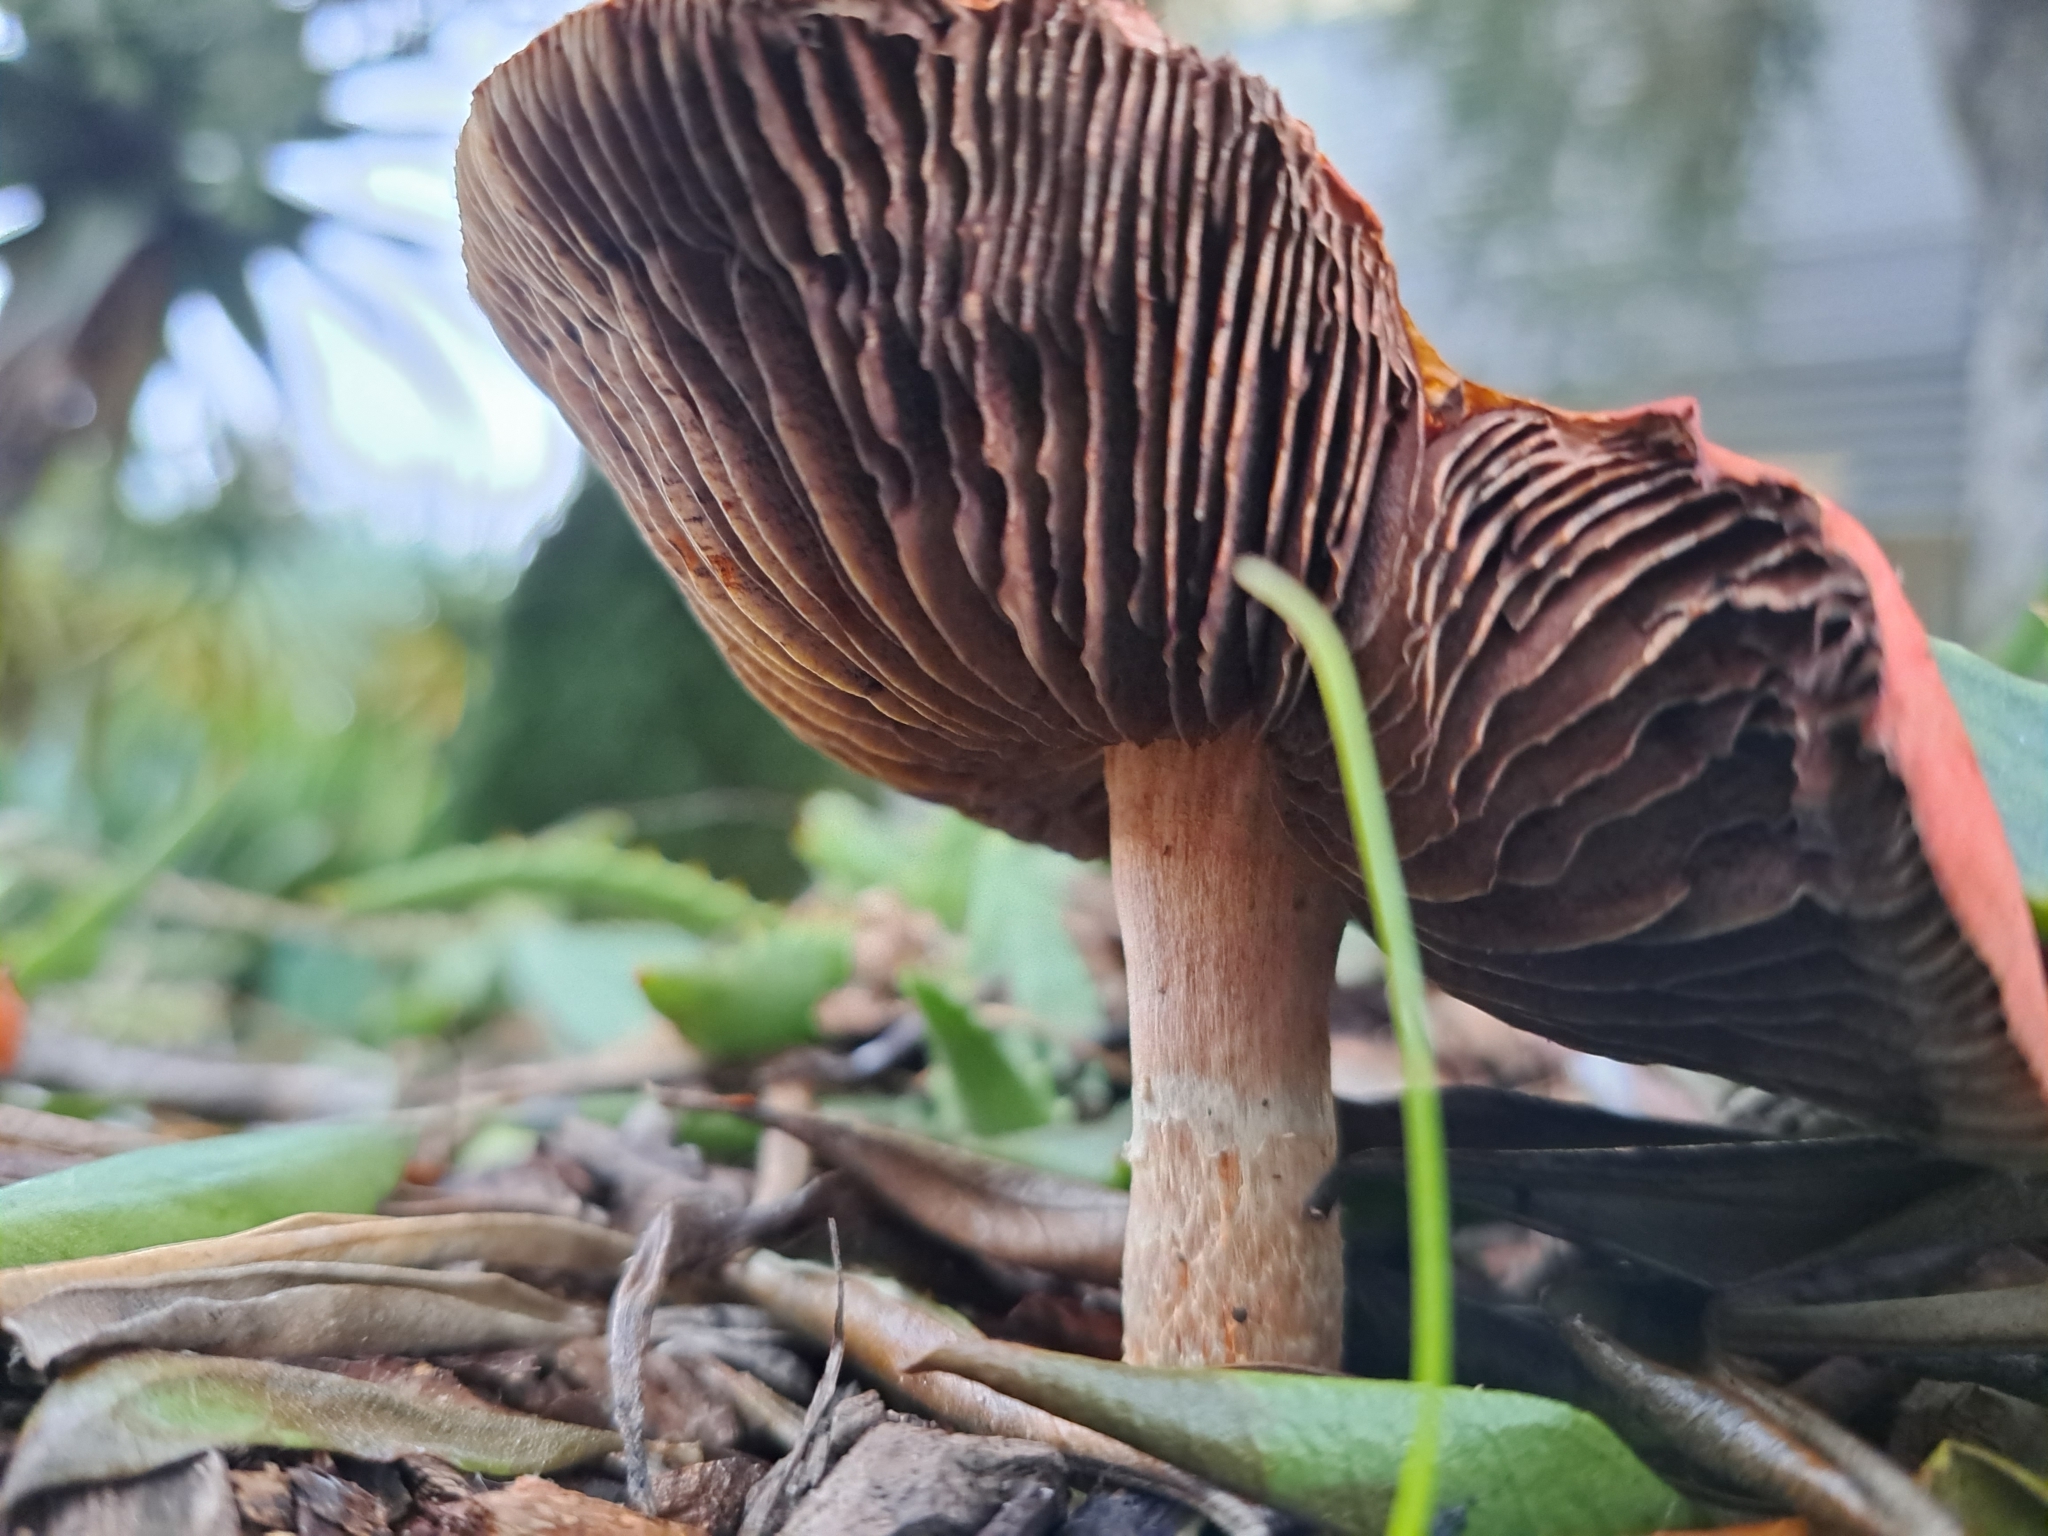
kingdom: Fungi
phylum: Basidiomycota
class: Agaricomycetes
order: Agaricales
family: Strophariaceae
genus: Leratiomyces
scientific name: Leratiomyces ceres
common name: Redlead roundhead
